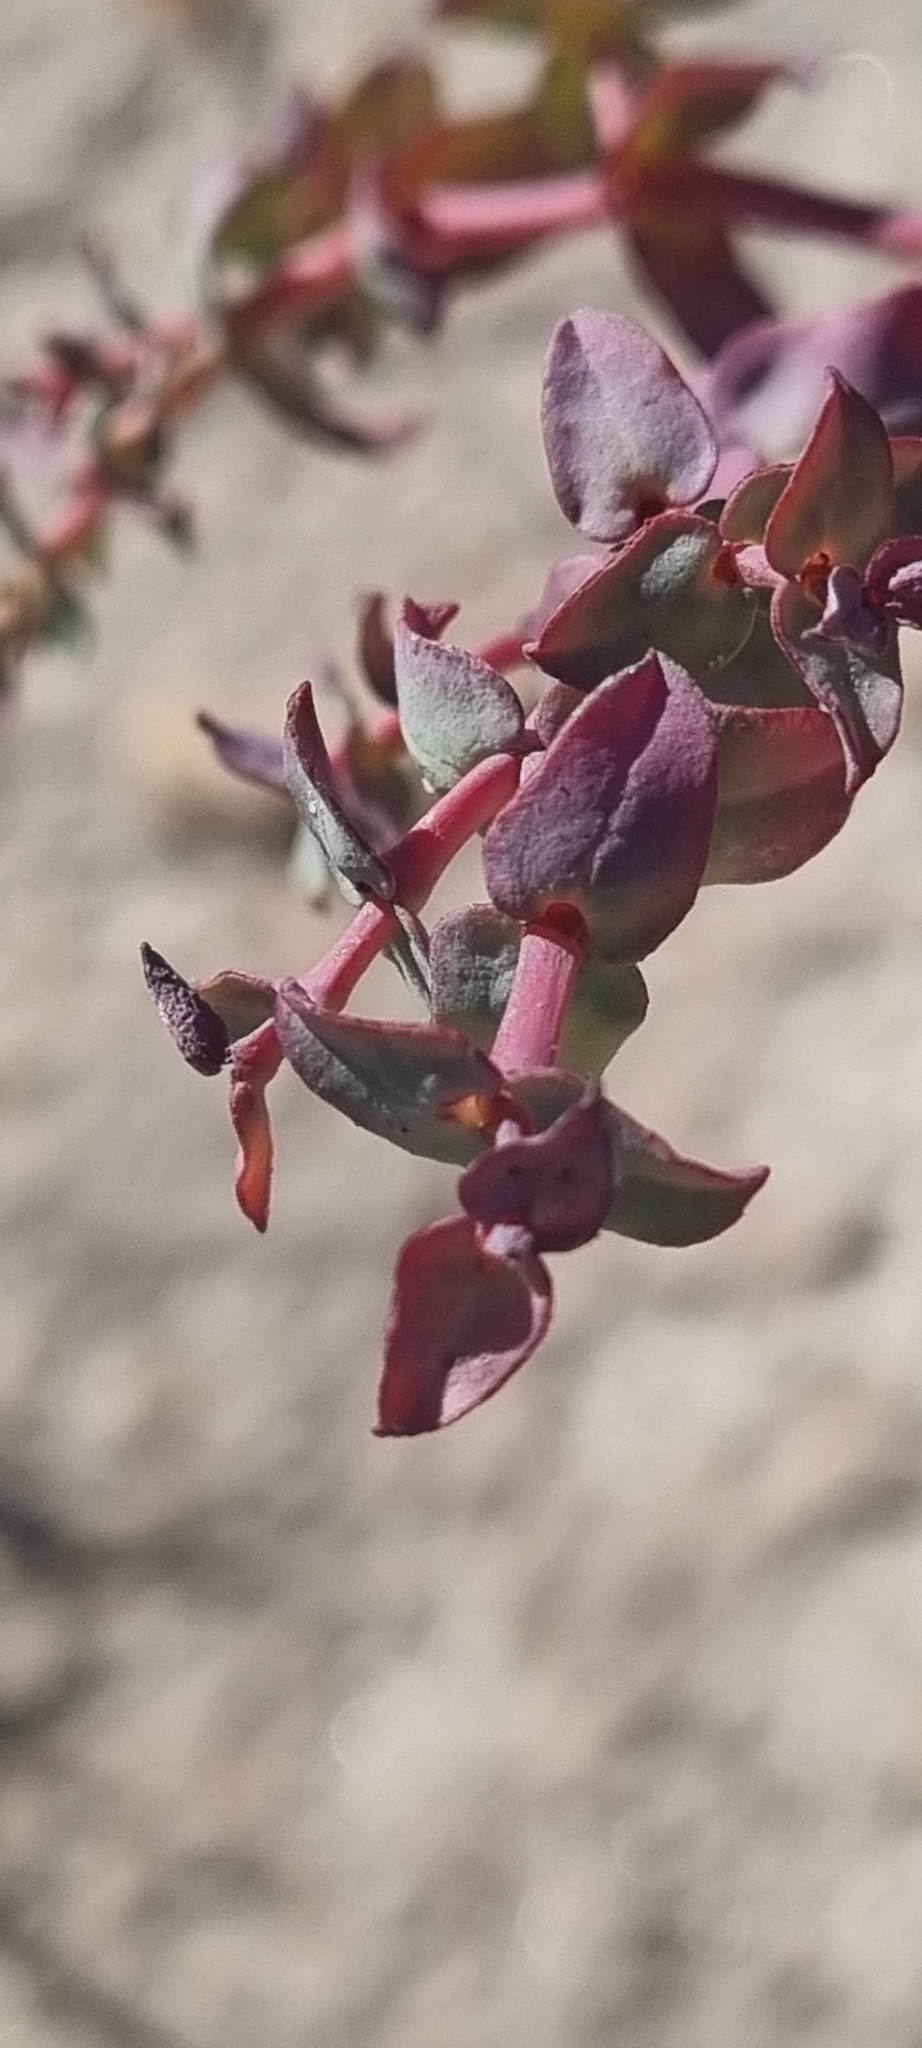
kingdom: Plantae
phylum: Tracheophyta
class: Magnoliopsida
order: Malpighiales
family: Euphorbiaceae
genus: Euphorbia
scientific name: Euphorbia astyla
